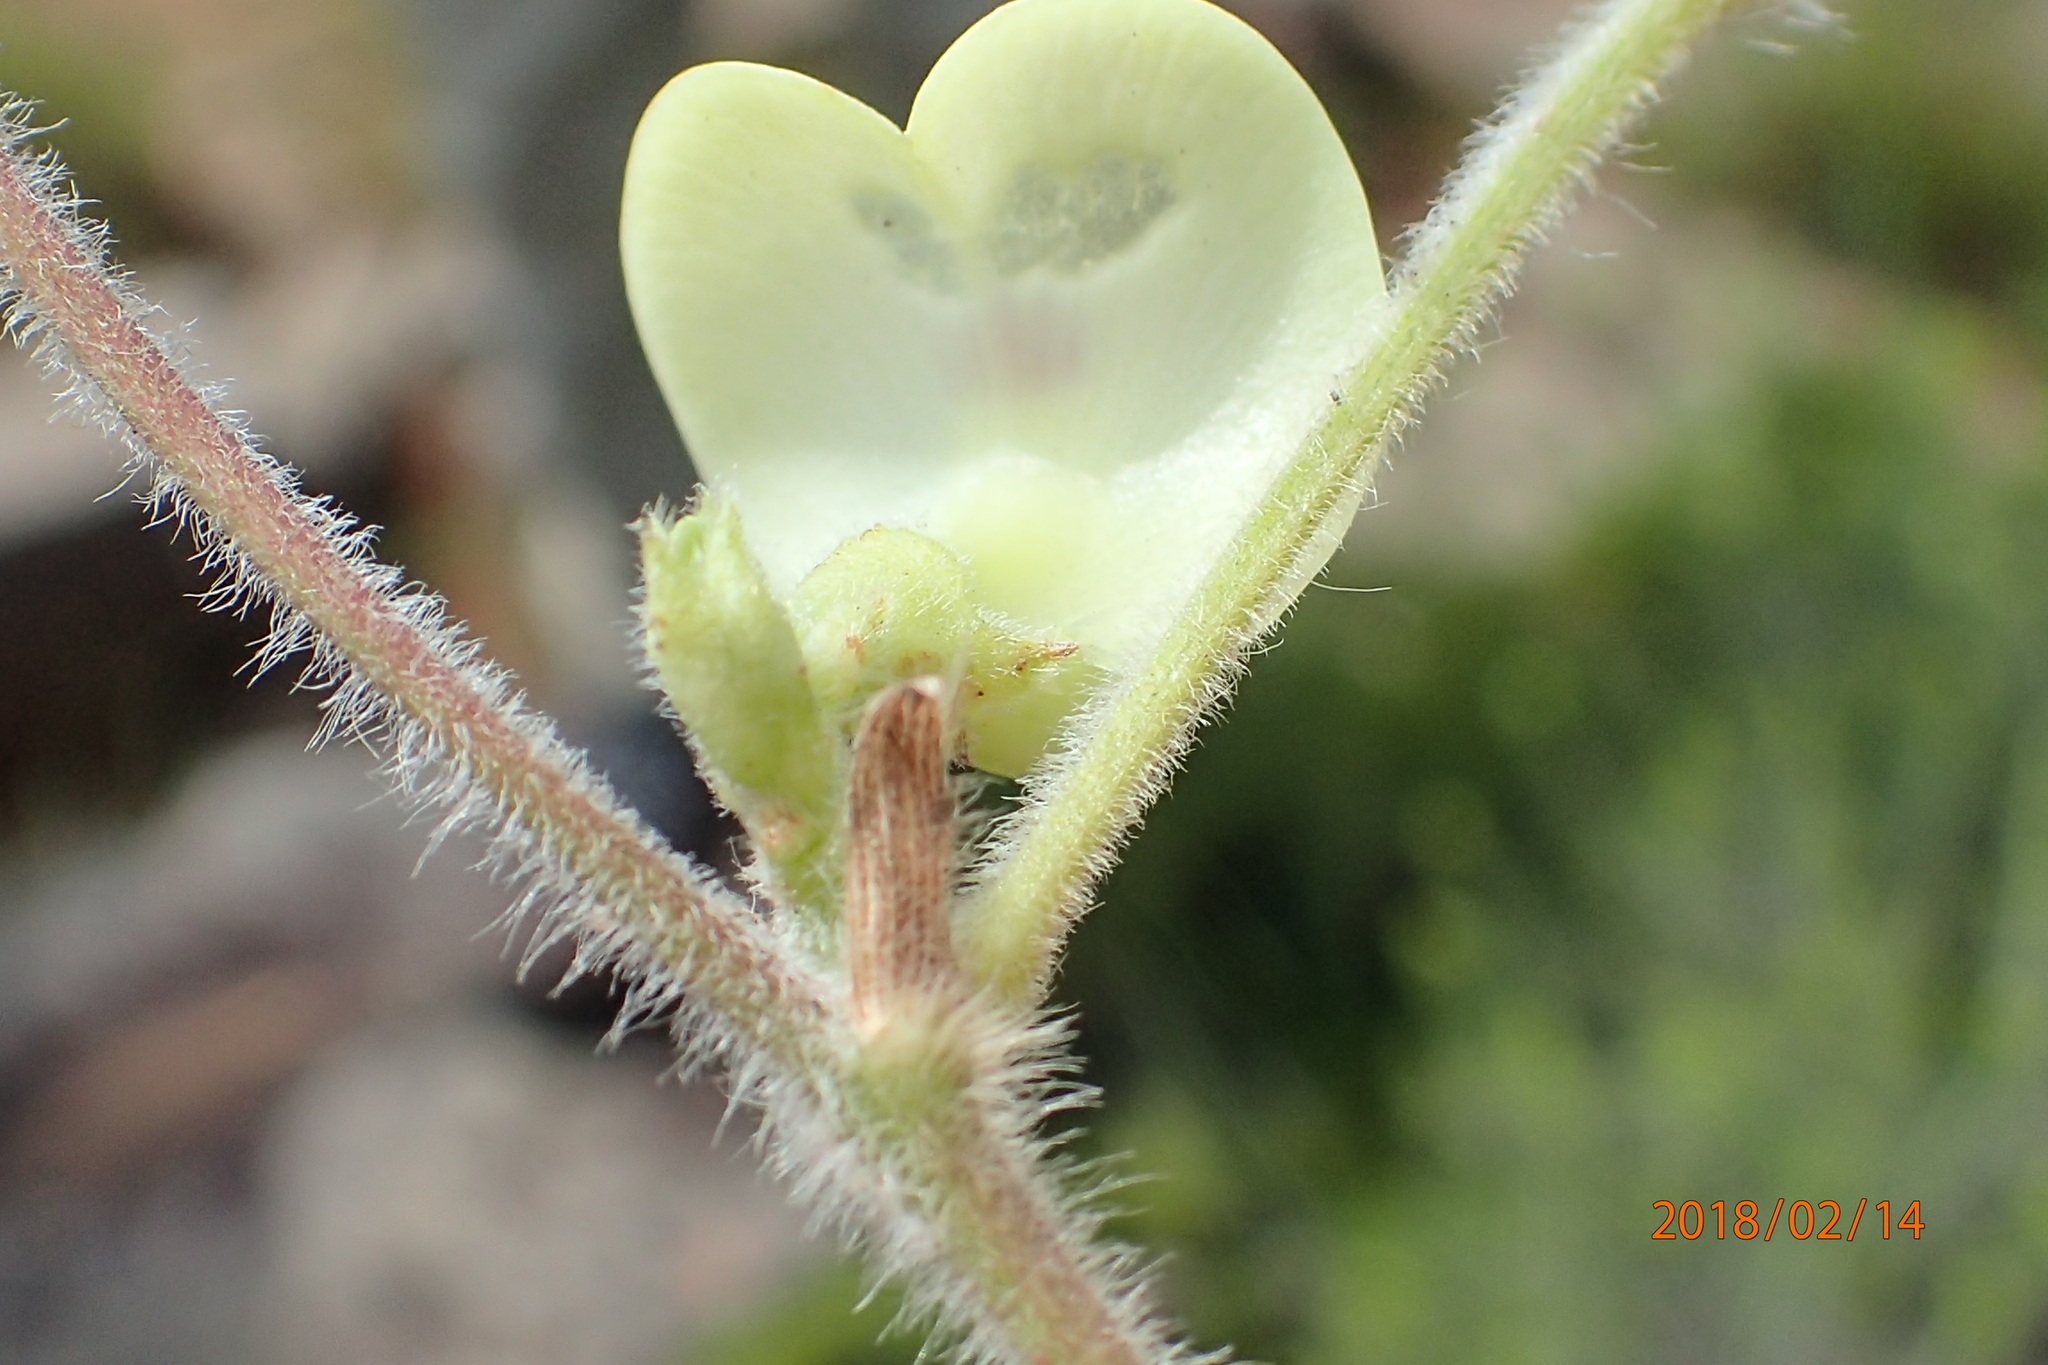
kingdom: Plantae
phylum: Tracheophyta
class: Magnoliopsida
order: Fabales
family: Fabaceae
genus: Macrotyloma
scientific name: Macrotyloma coddii
